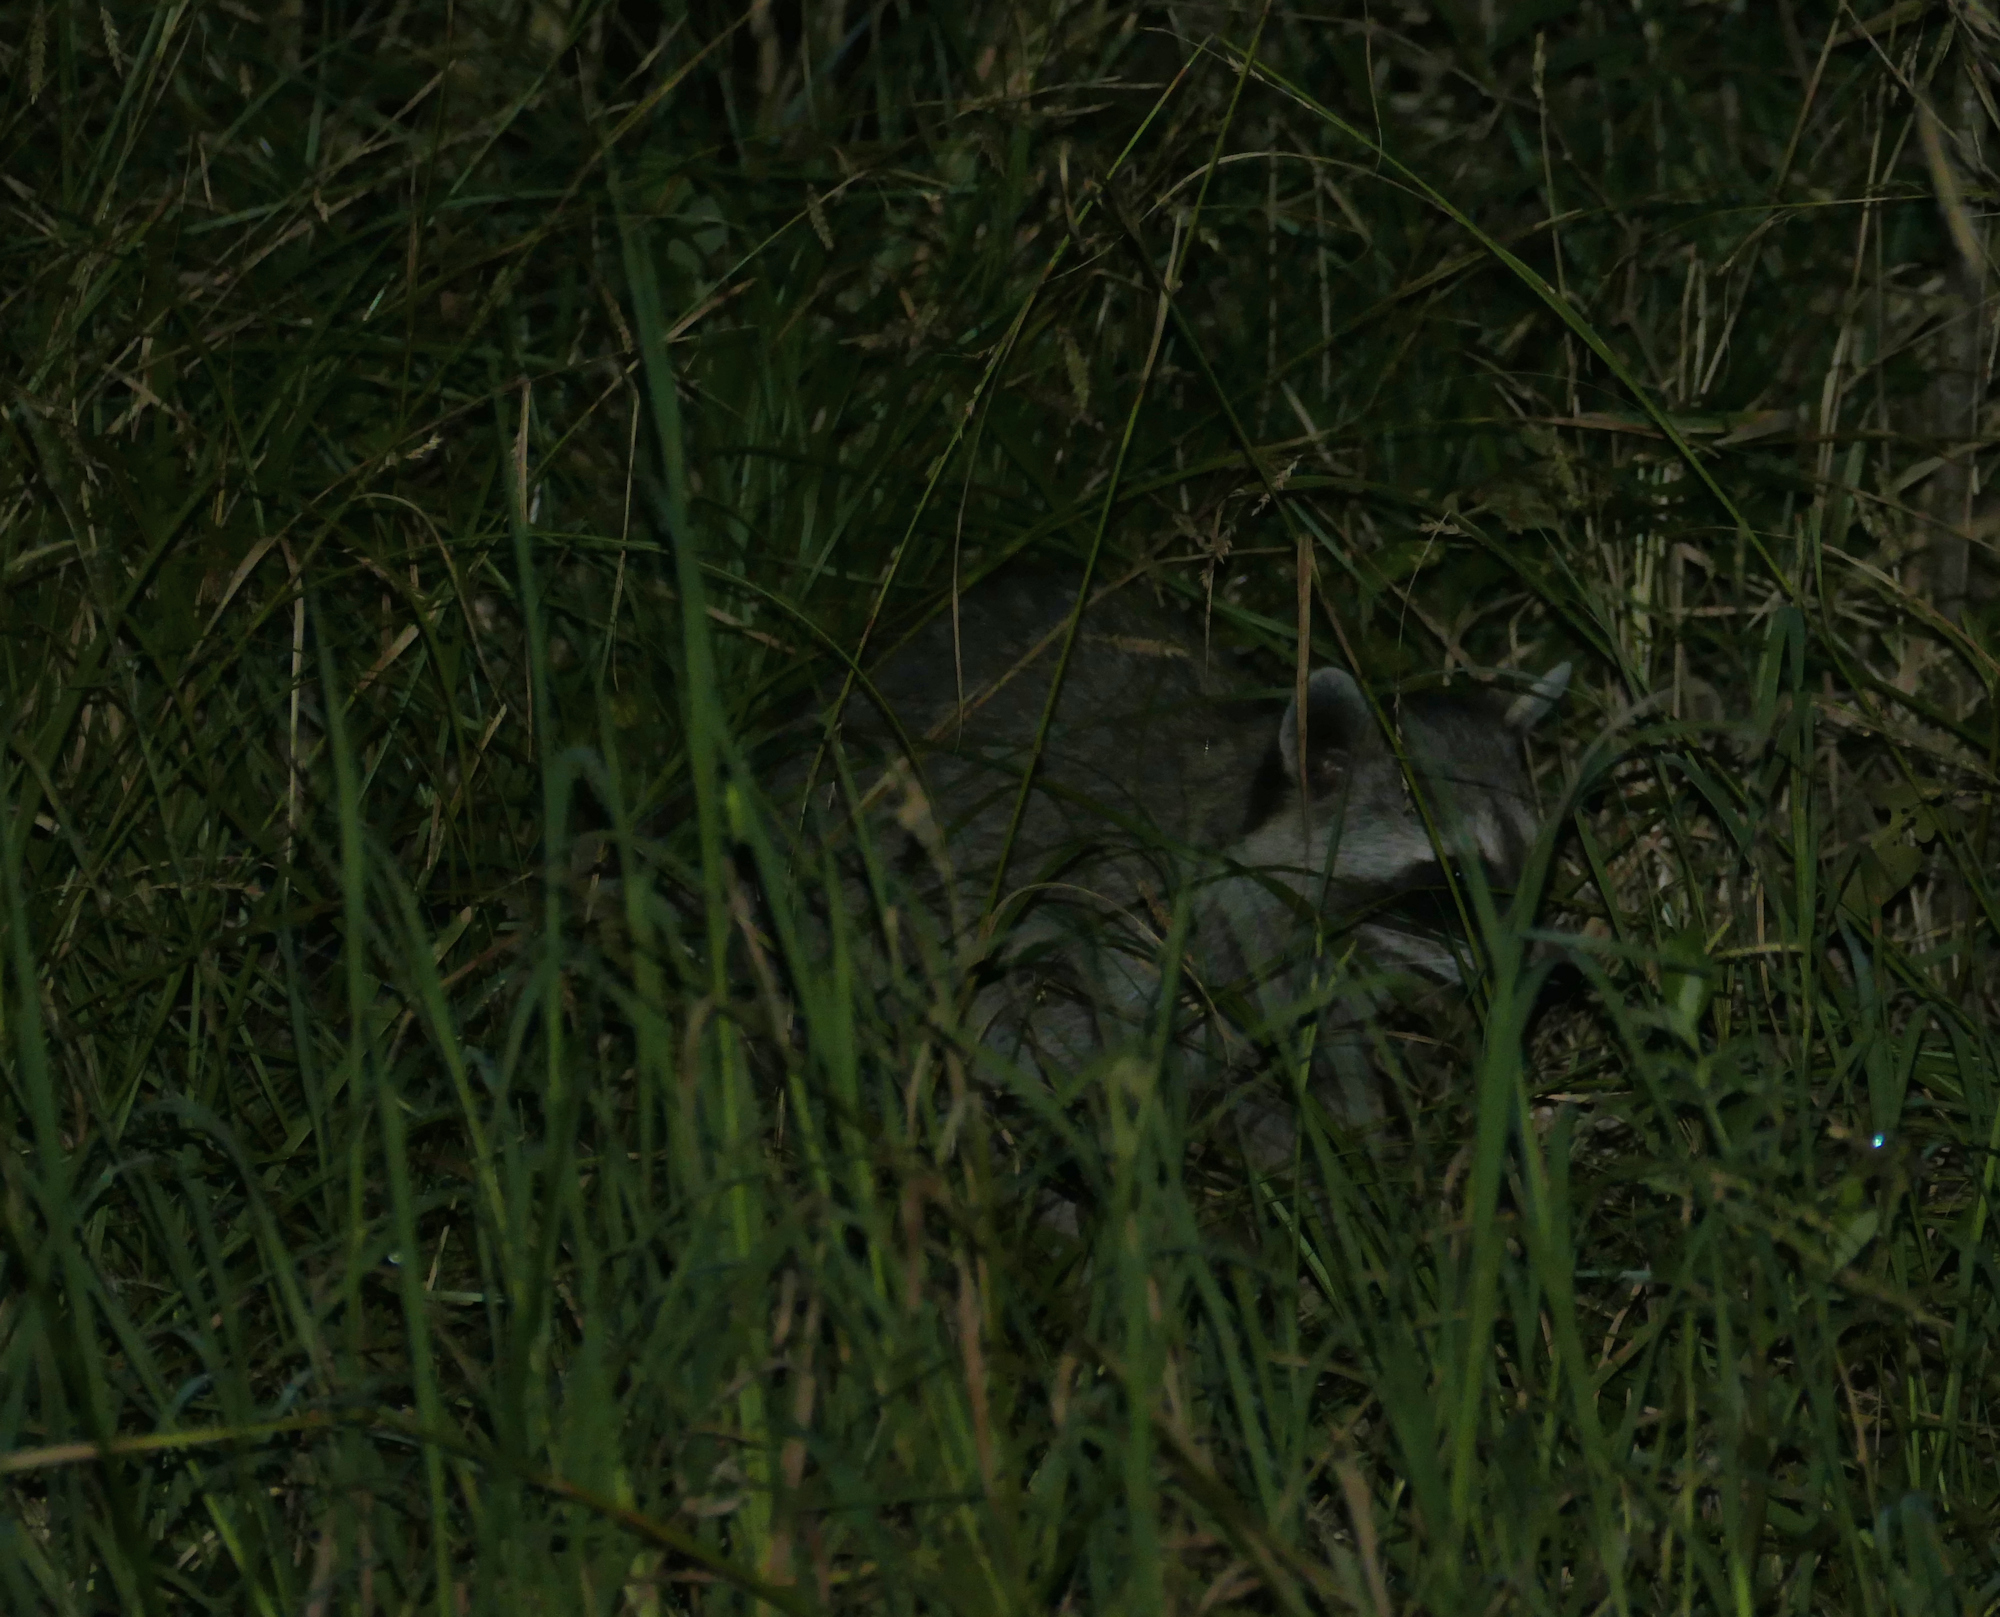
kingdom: Animalia
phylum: Chordata
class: Mammalia
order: Carnivora
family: Procyonidae
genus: Procyon
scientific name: Procyon lotor
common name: Raccoon
